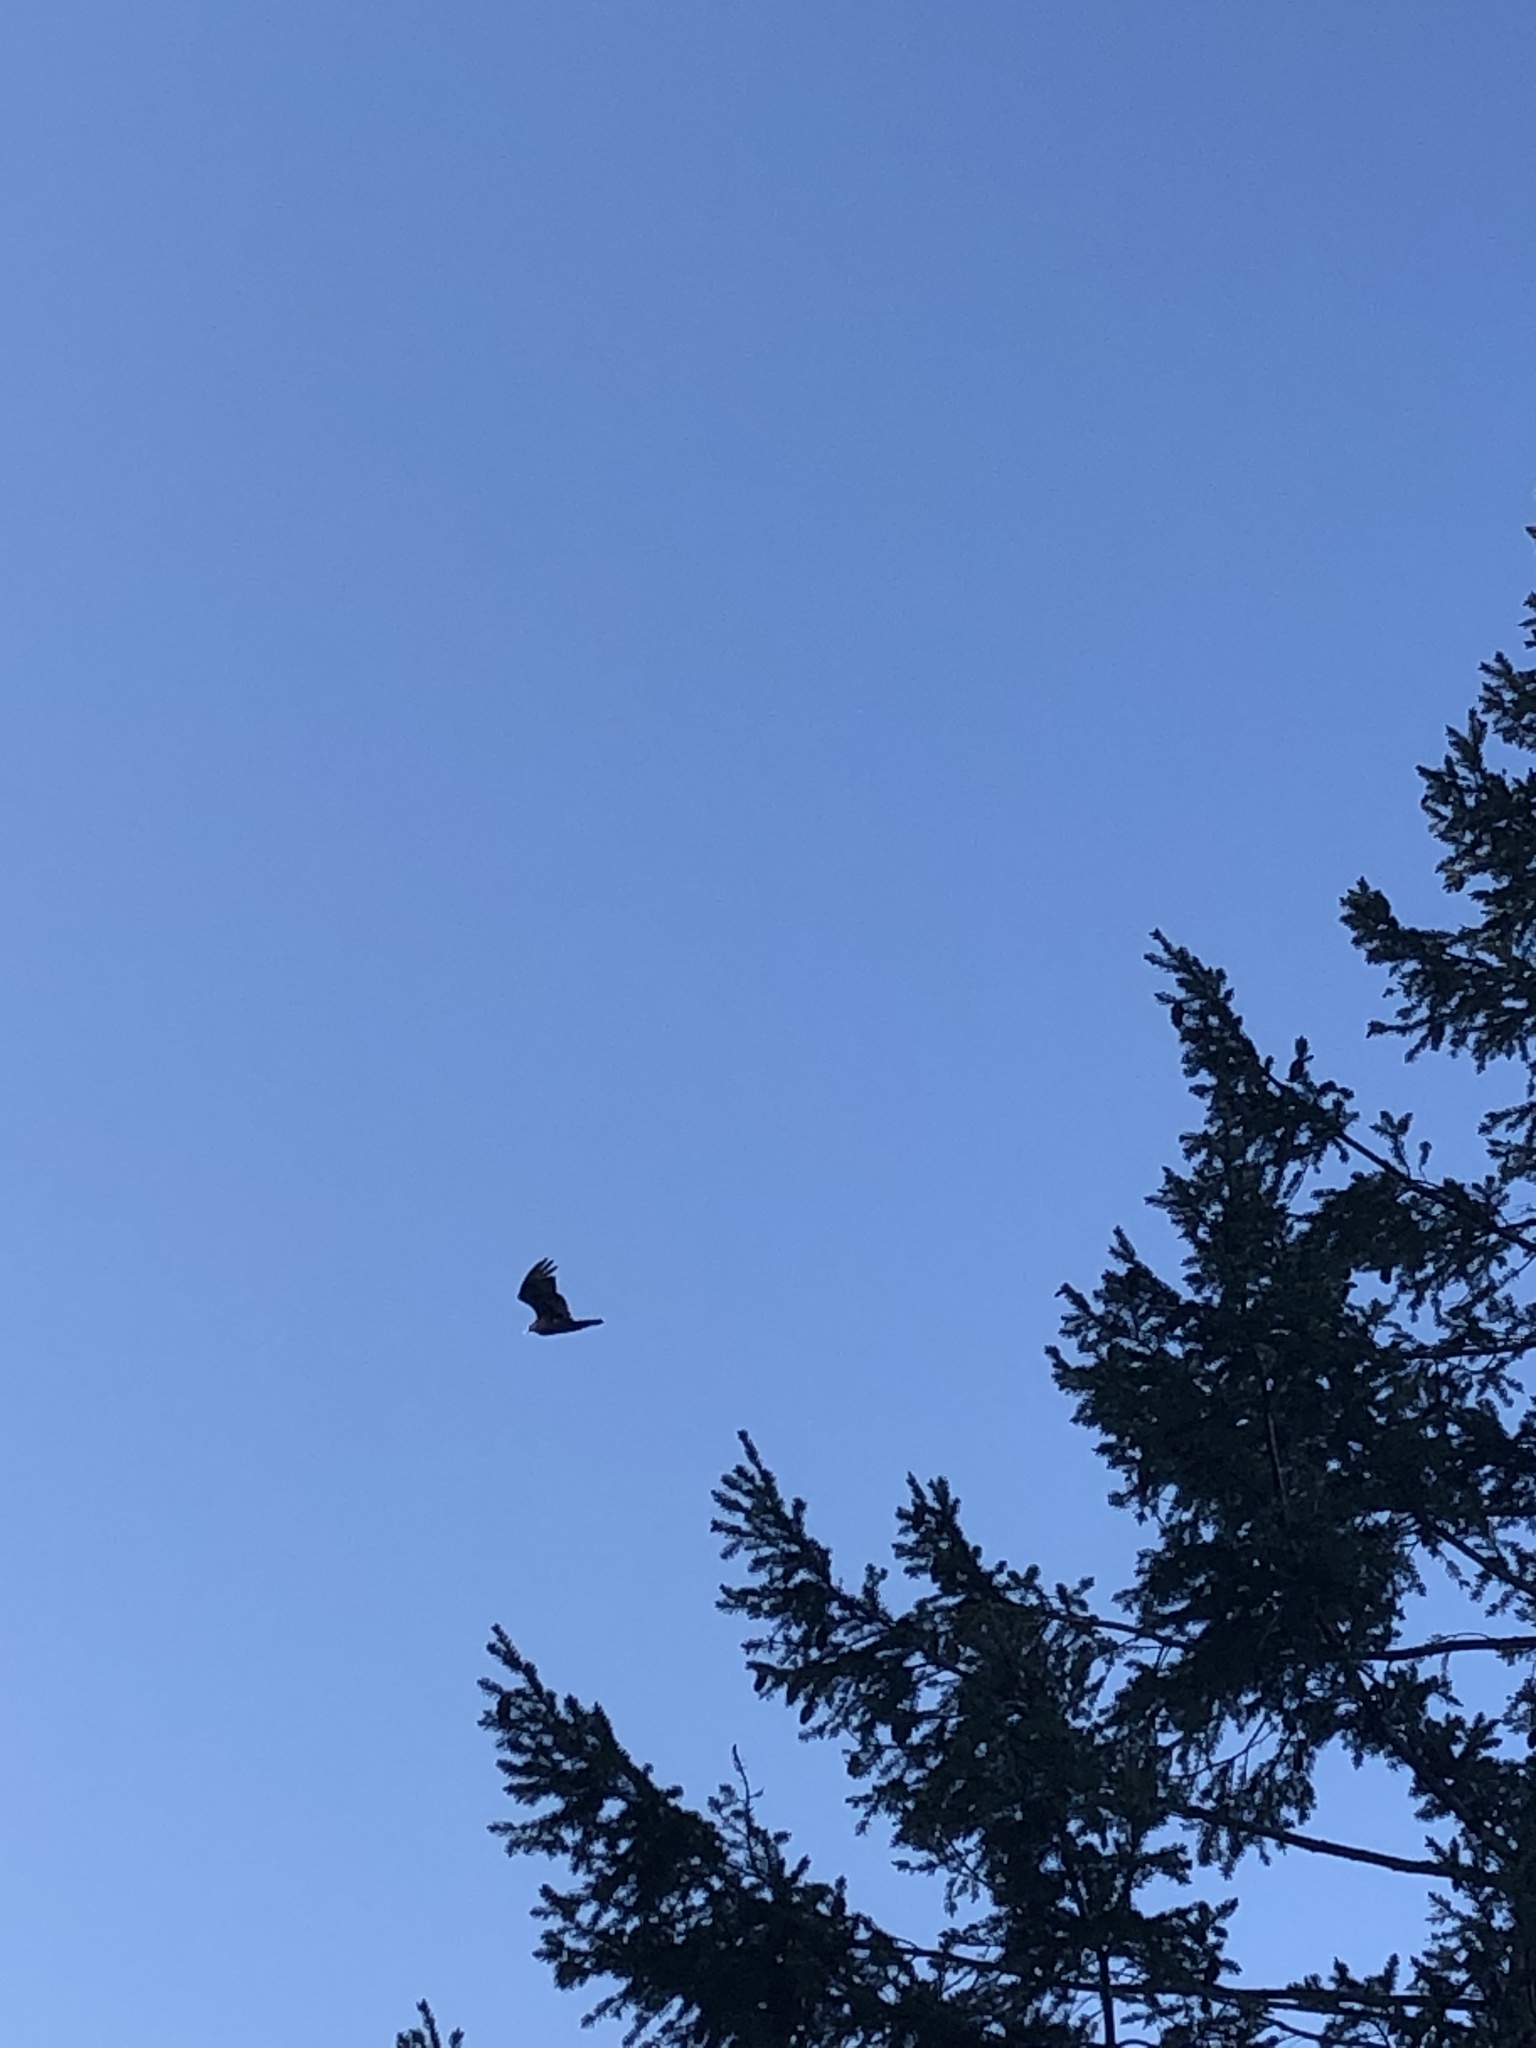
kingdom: Animalia
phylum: Chordata
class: Aves
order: Accipitriformes
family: Cathartidae
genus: Cathartes
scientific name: Cathartes aura
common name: Turkey vulture
